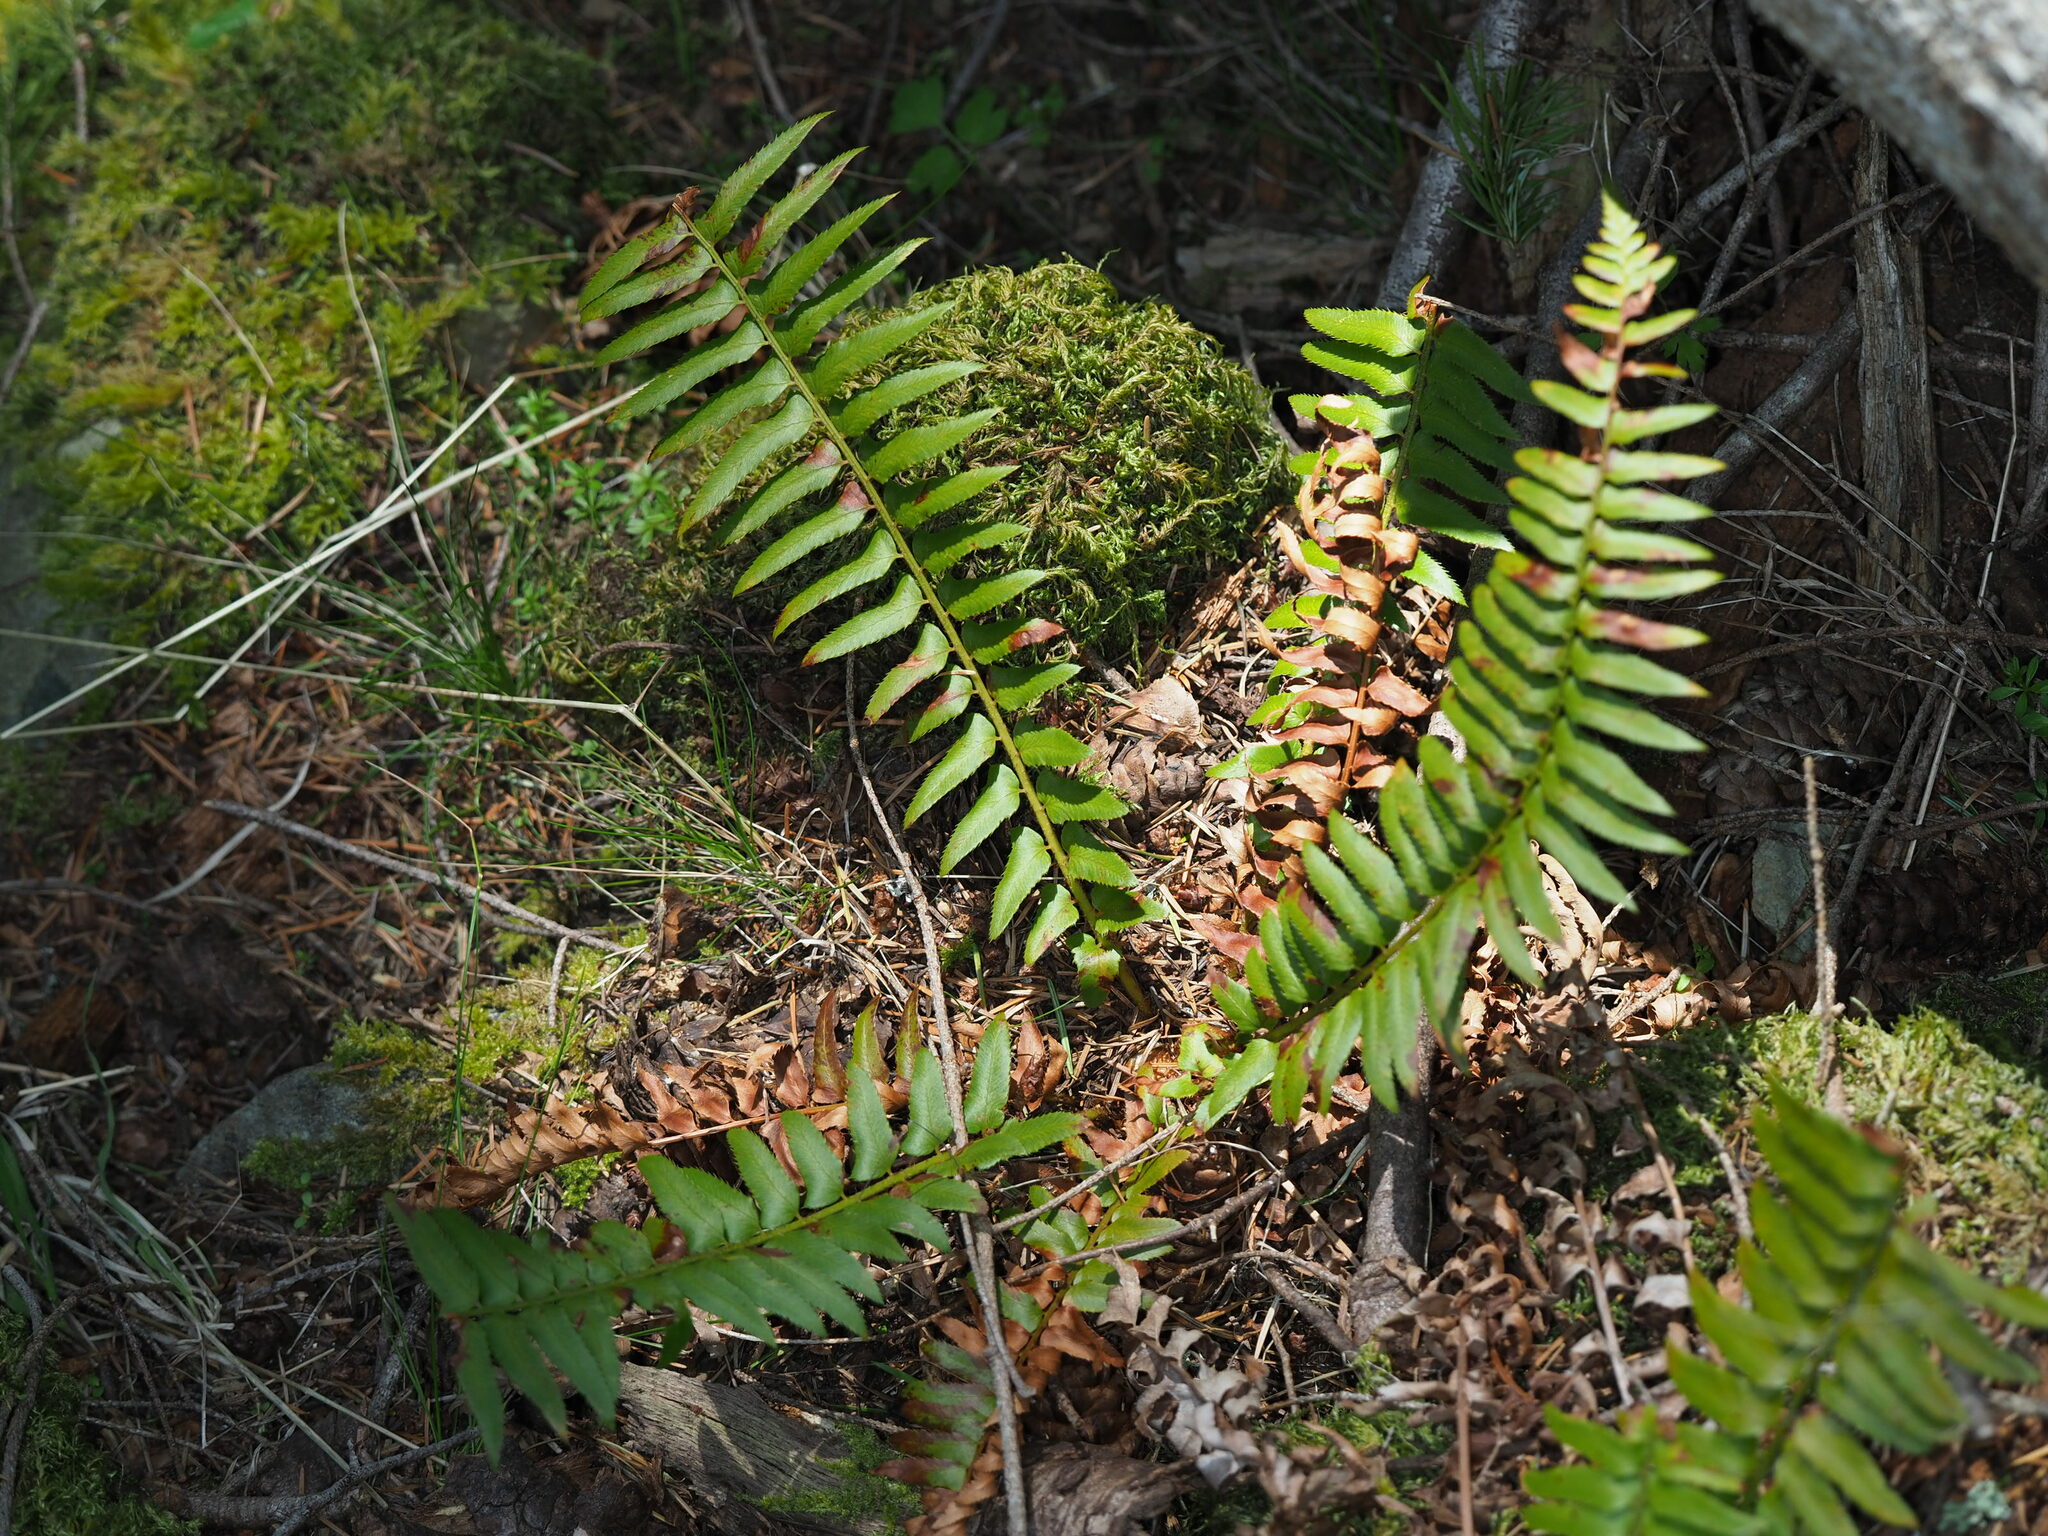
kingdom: Plantae
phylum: Tracheophyta
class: Polypodiopsida
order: Polypodiales
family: Dryopteridaceae
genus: Polystichum
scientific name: Polystichum munitum
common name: Western sword-fern
